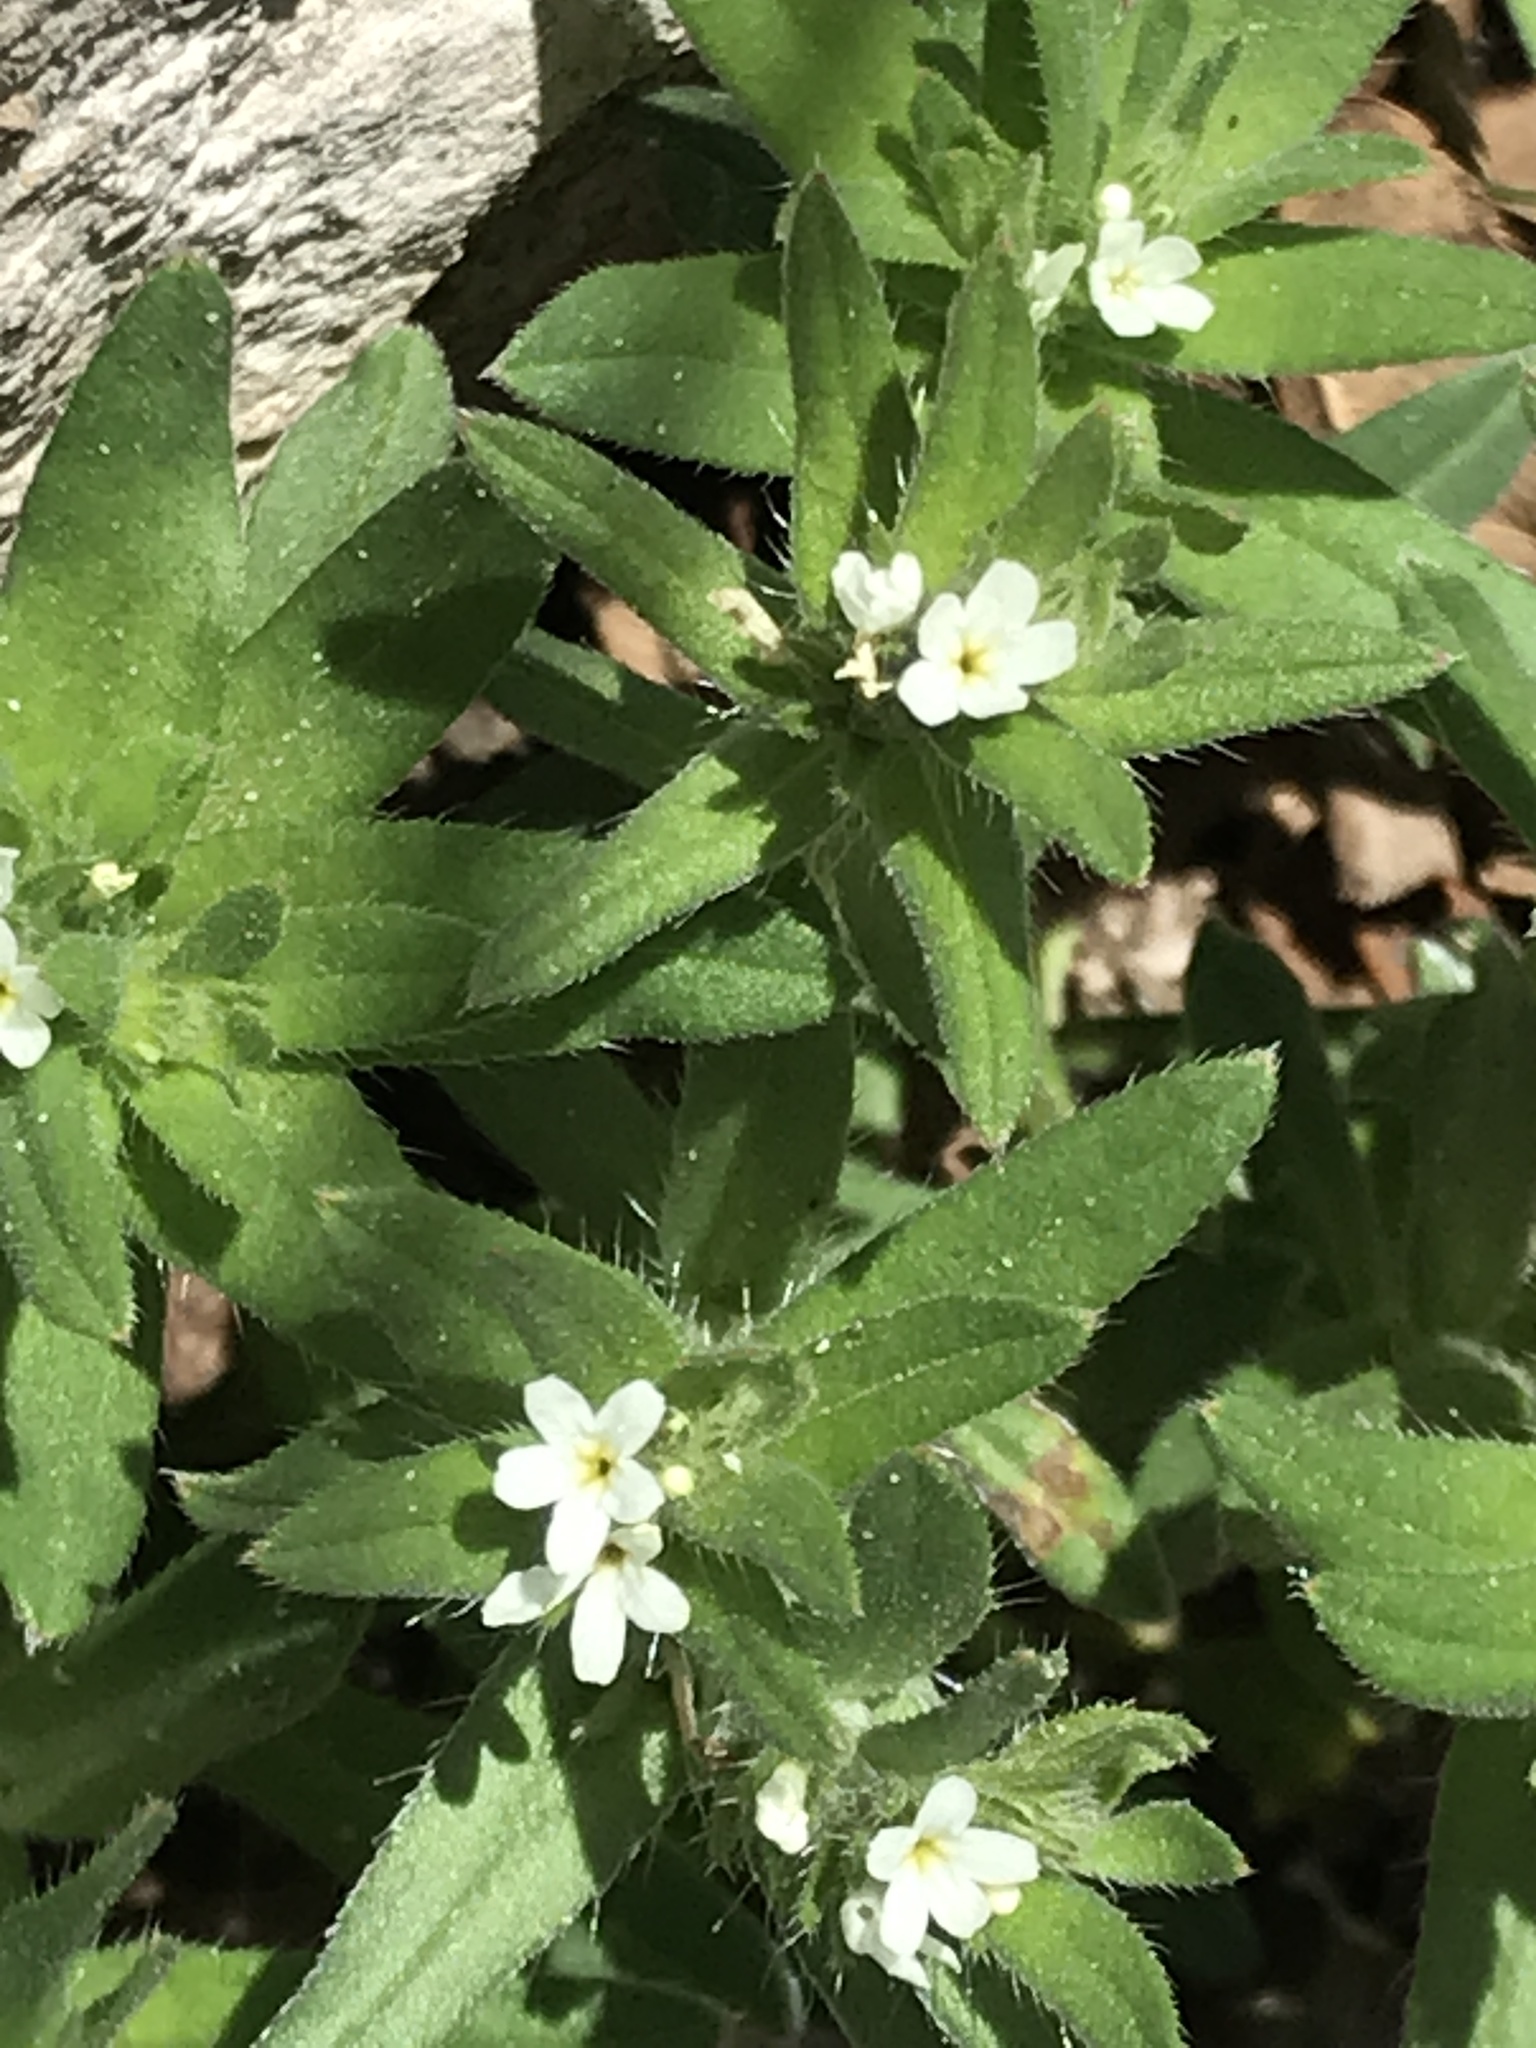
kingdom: Plantae
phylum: Tracheophyta
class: Magnoliopsida
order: Boraginales
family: Boraginaceae
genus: Buglossoides
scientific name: Buglossoides arvensis
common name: Corn gromwell
